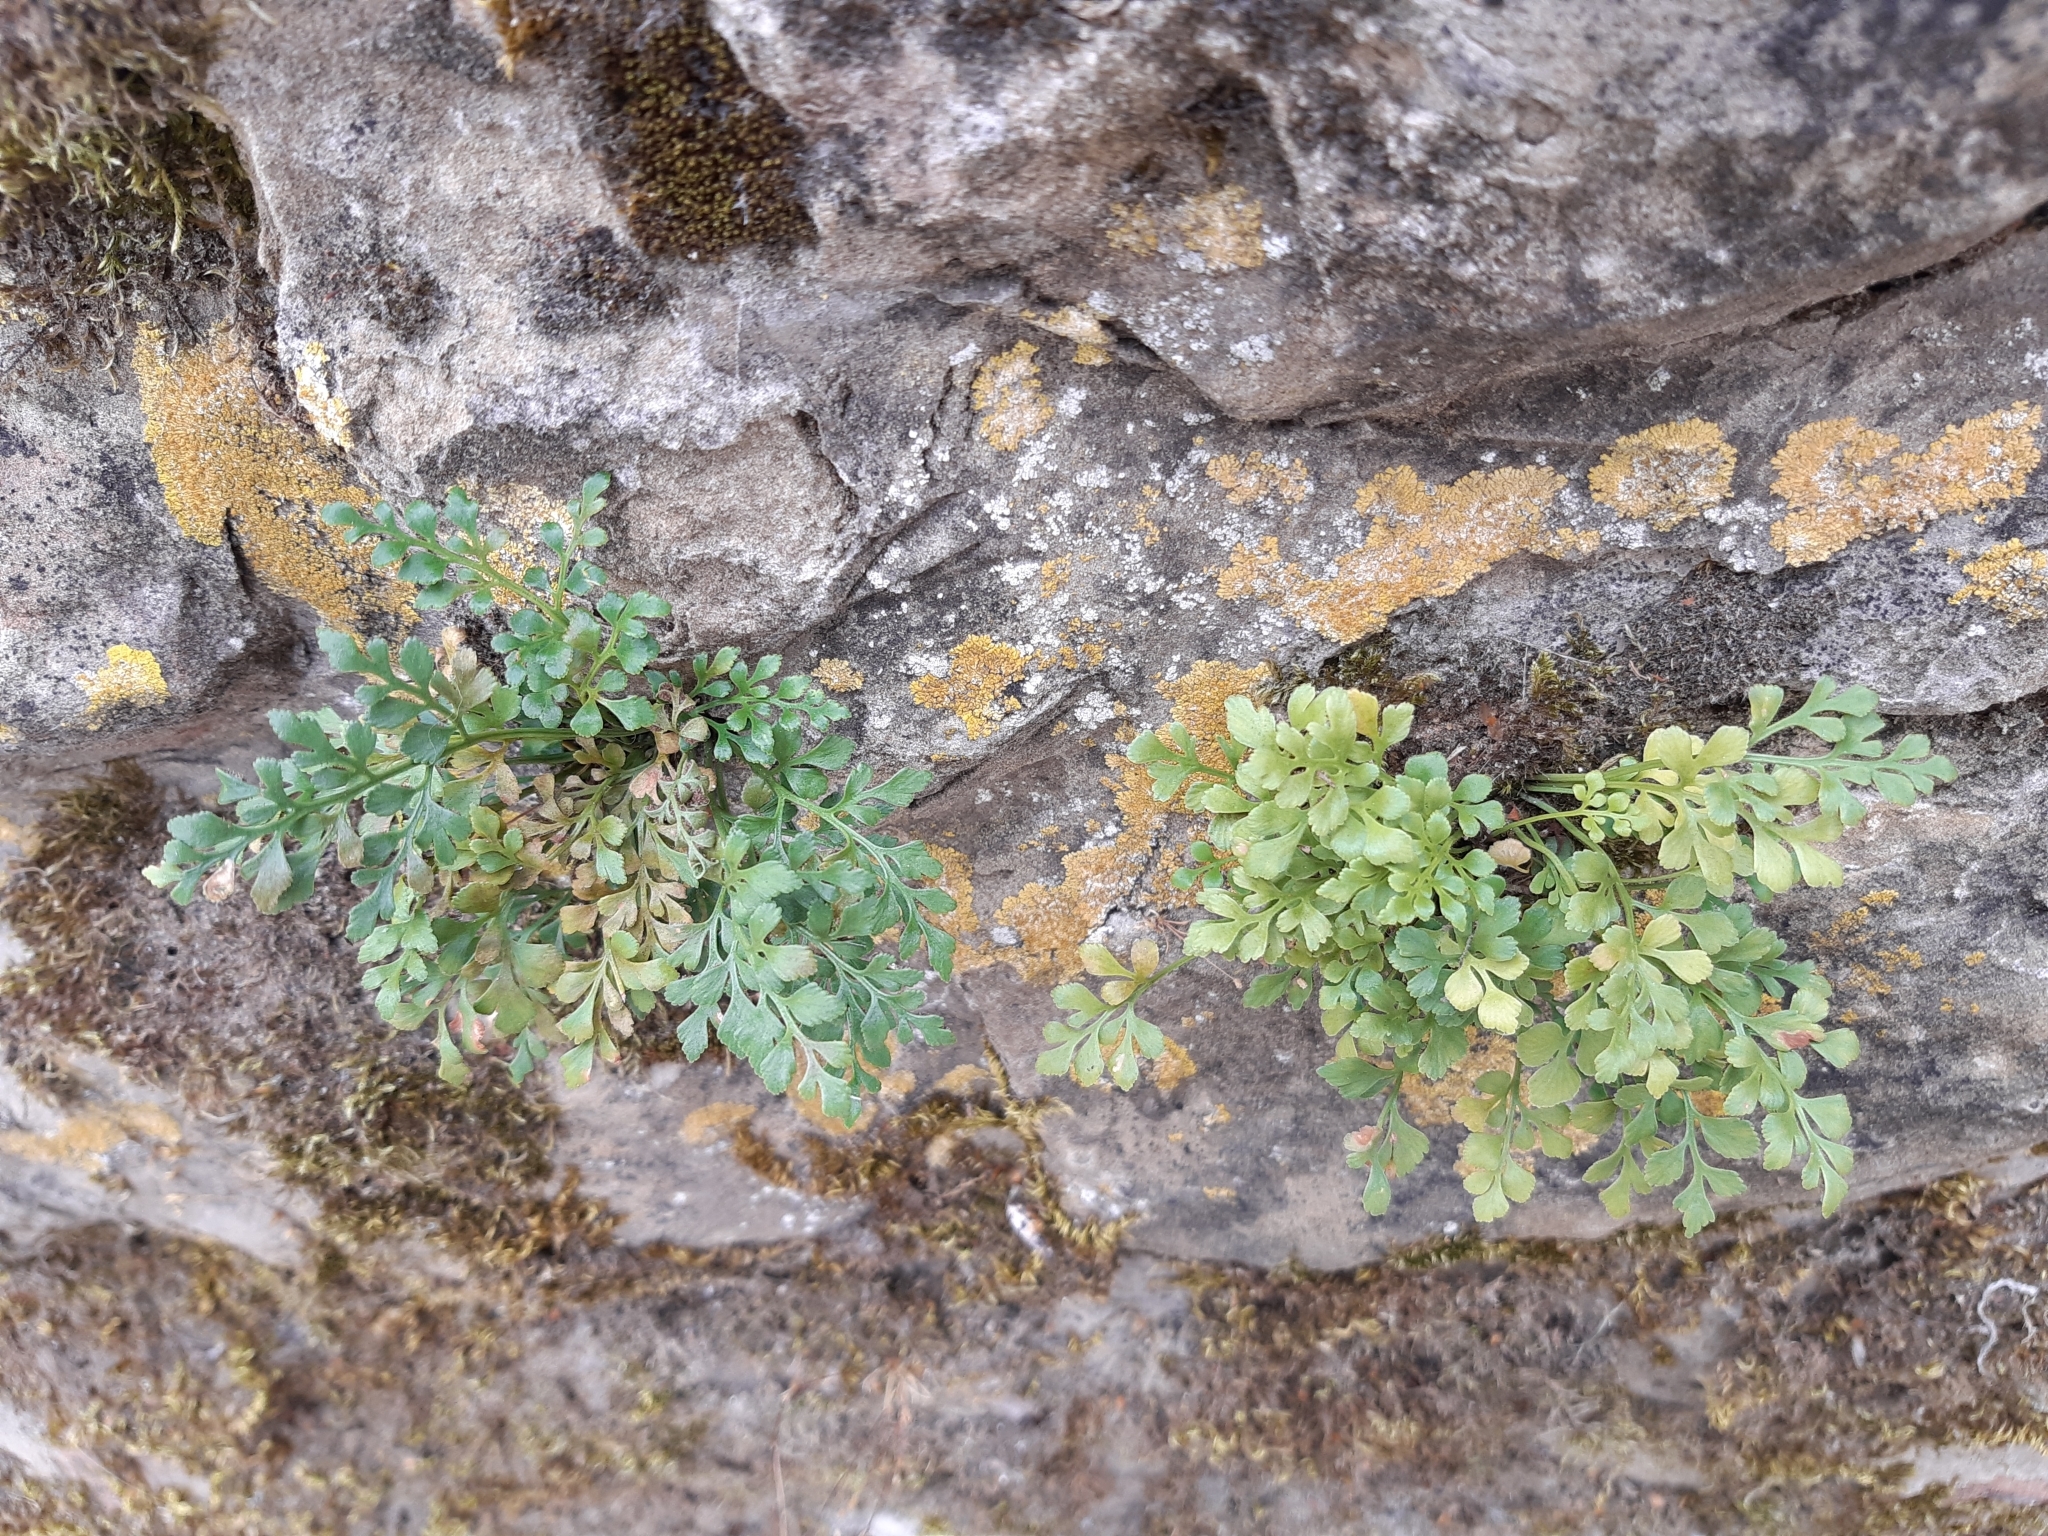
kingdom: Plantae
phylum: Tracheophyta
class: Polypodiopsida
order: Polypodiales
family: Aspleniaceae
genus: Asplenium
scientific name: Asplenium ruta-muraria
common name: Wall-rue
